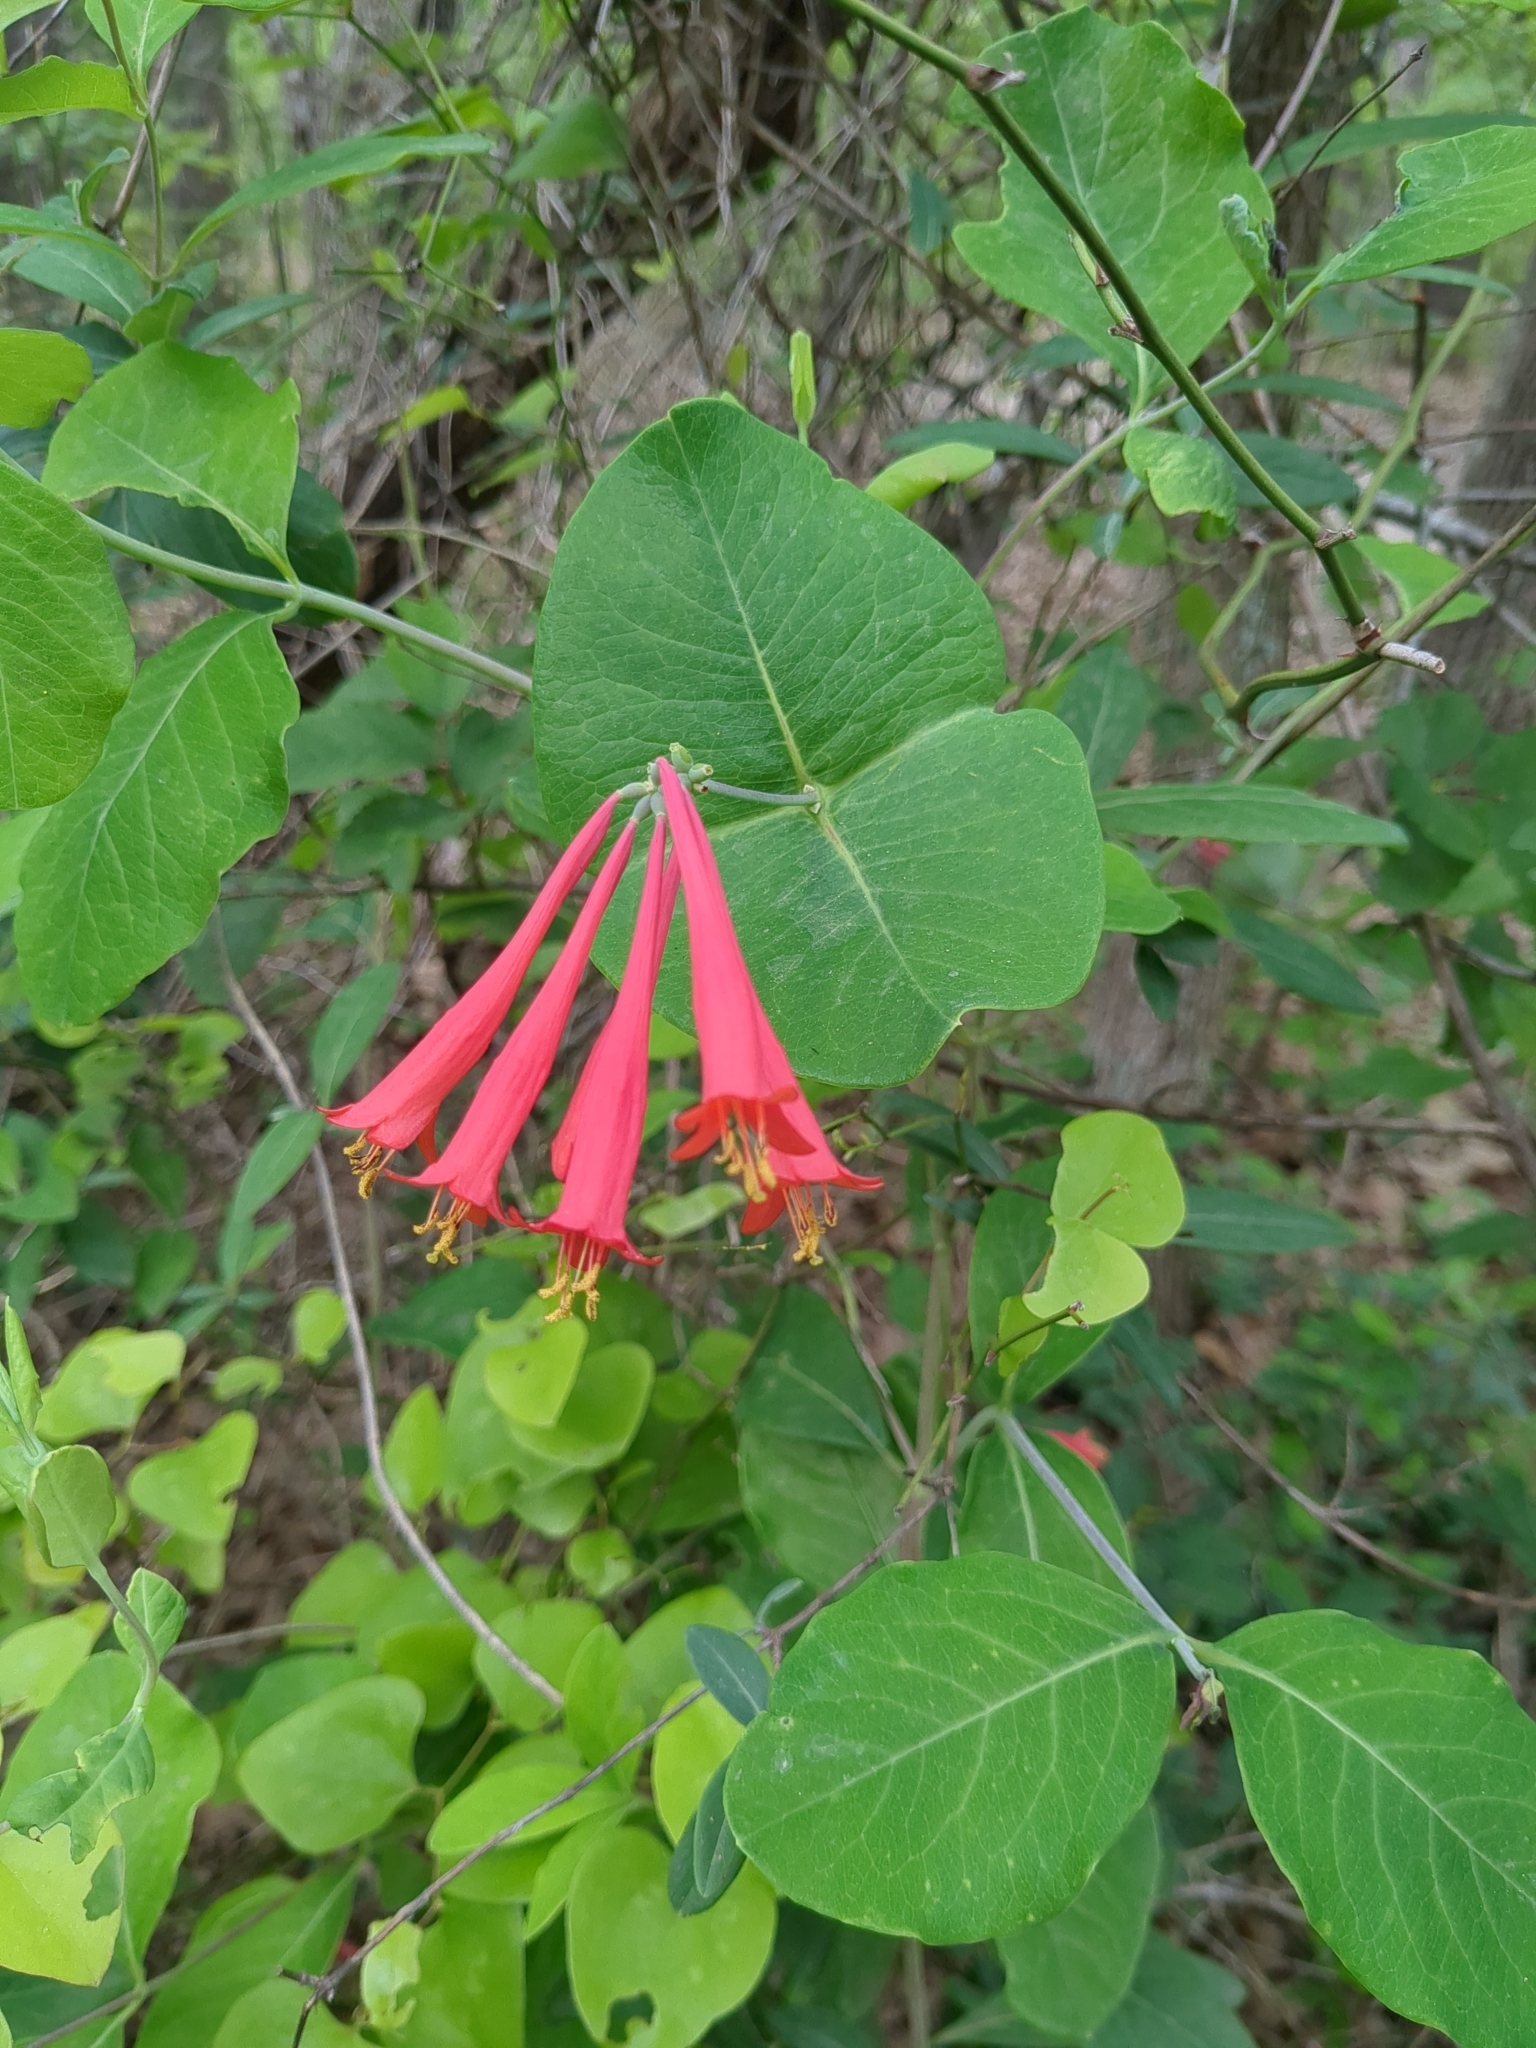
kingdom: Plantae
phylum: Tracheophyta
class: Magnoliopsida
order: Dipsacales
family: Caprifoliaceae
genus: Lonicera
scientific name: Lonicera sempervirens
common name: Coral honeysuckle
